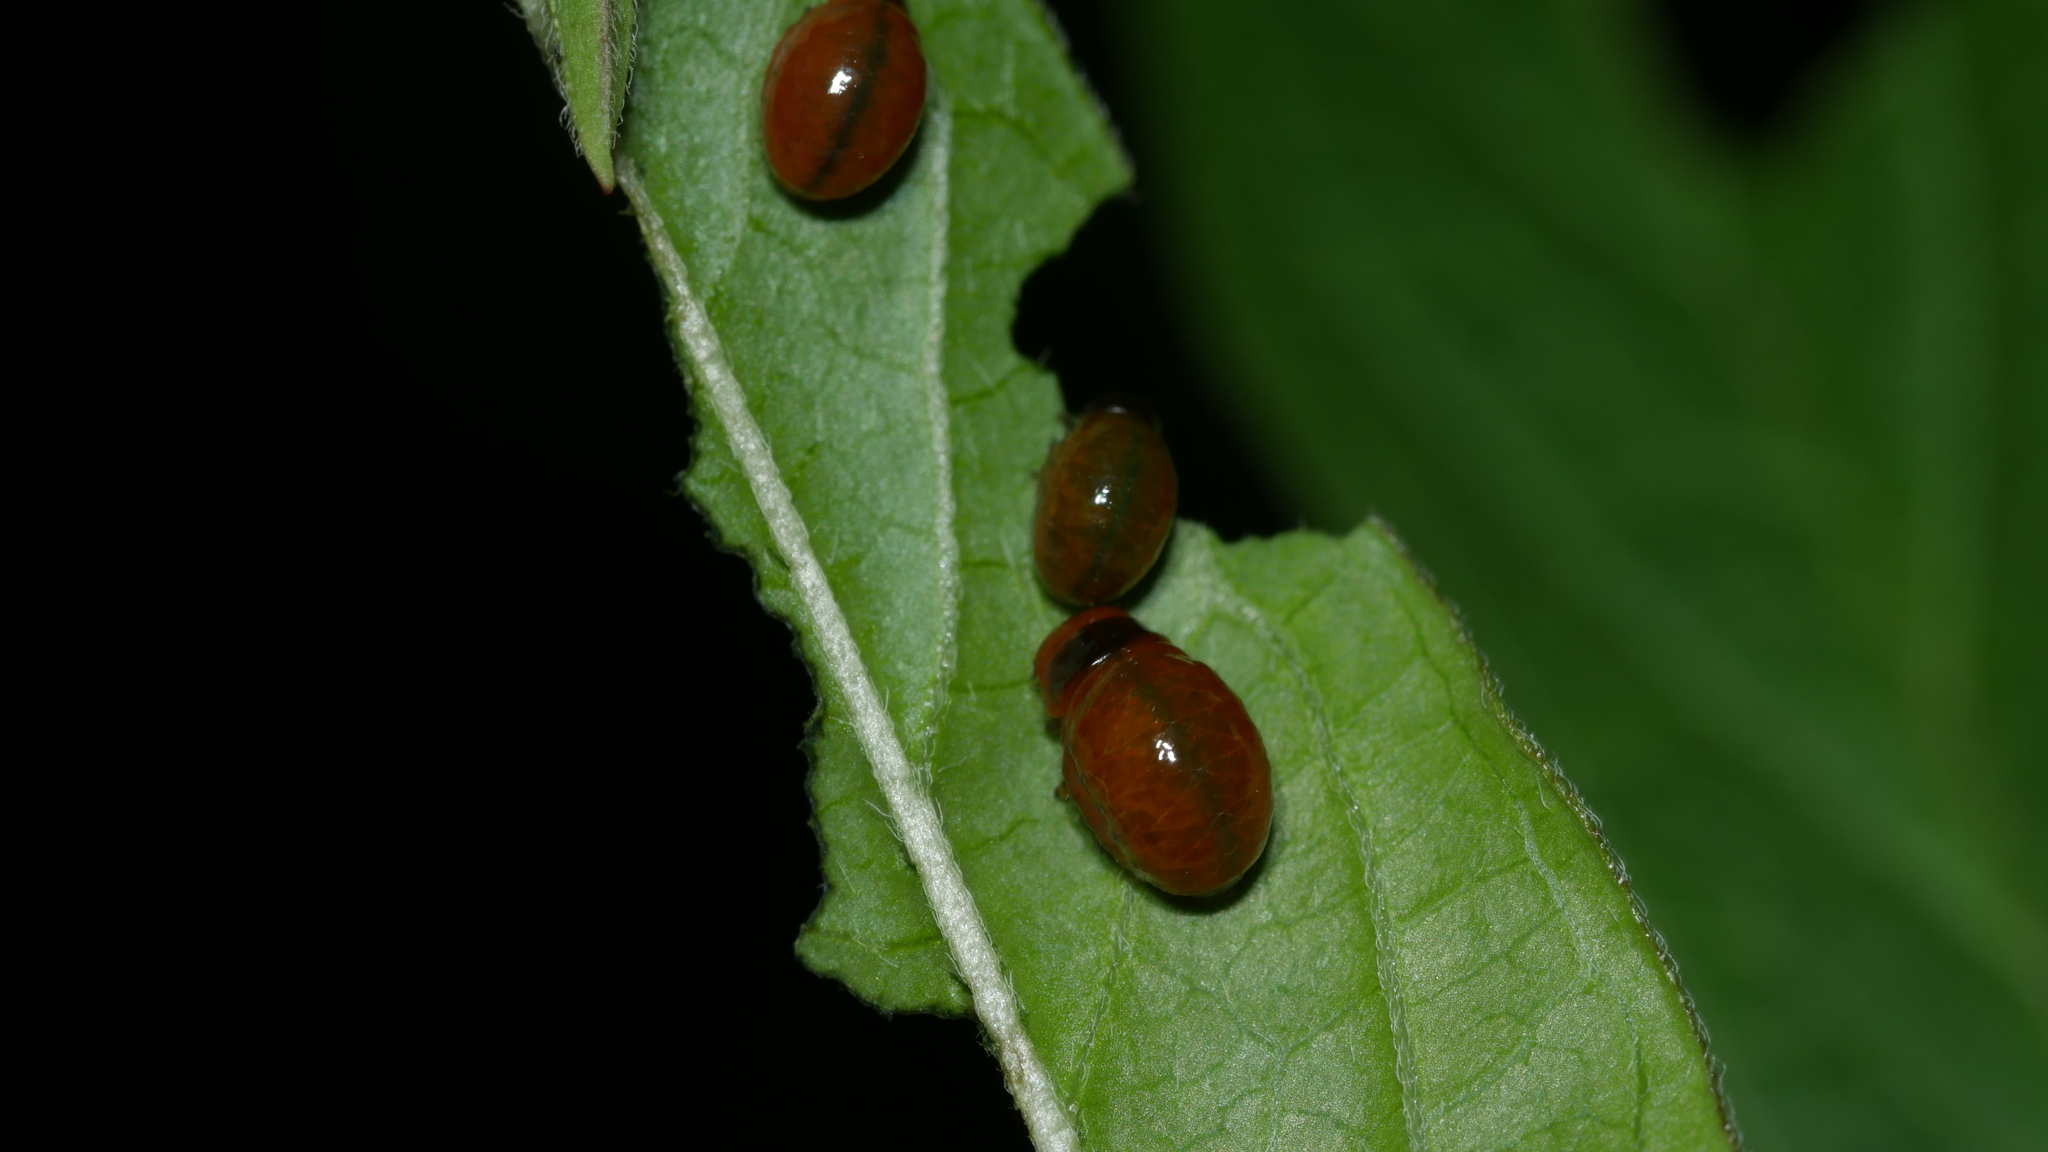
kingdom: Animalia
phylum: Arthropoda
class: Insecta
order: Coleoptera
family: Chrysomelidae
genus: Labidomera
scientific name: Labidomera clivicollis
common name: Swamp milkweed leaf beetle
